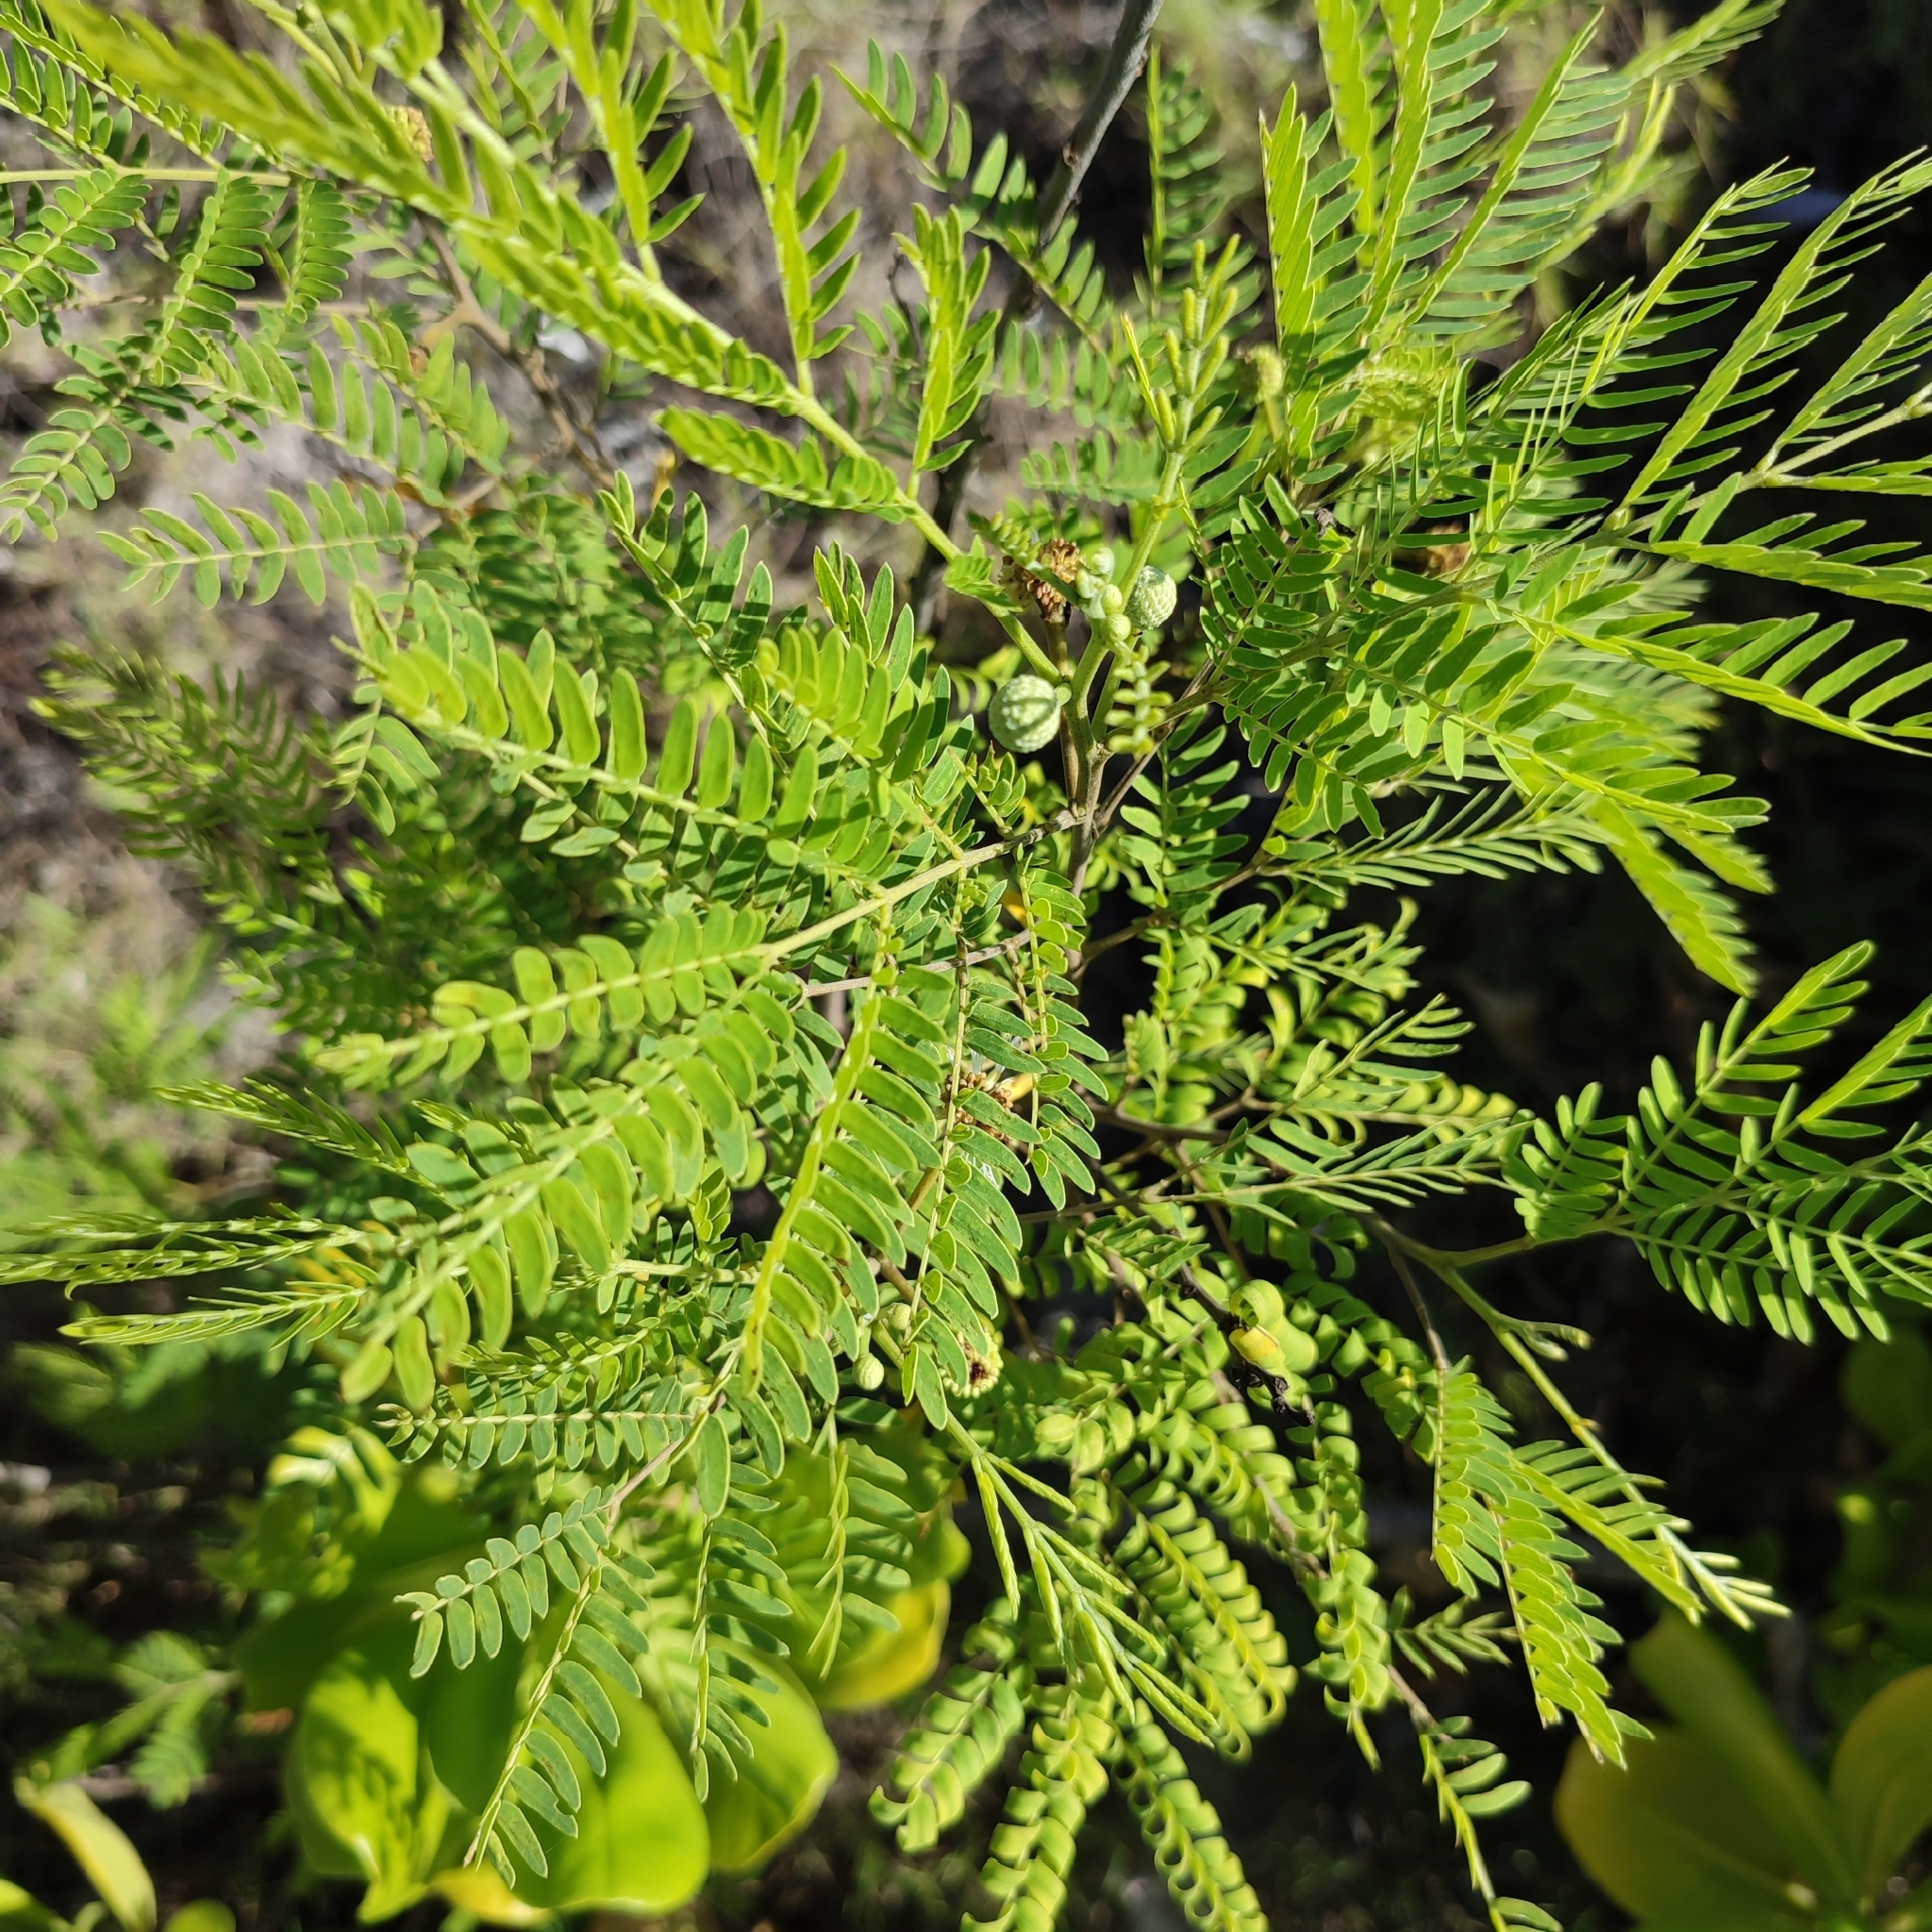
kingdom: Plantae
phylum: Tracheophyta
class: Magnoliopsida
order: Fabales
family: Fabaceae
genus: Leucaena
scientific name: Leucaena leucocephala
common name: White leadtree
